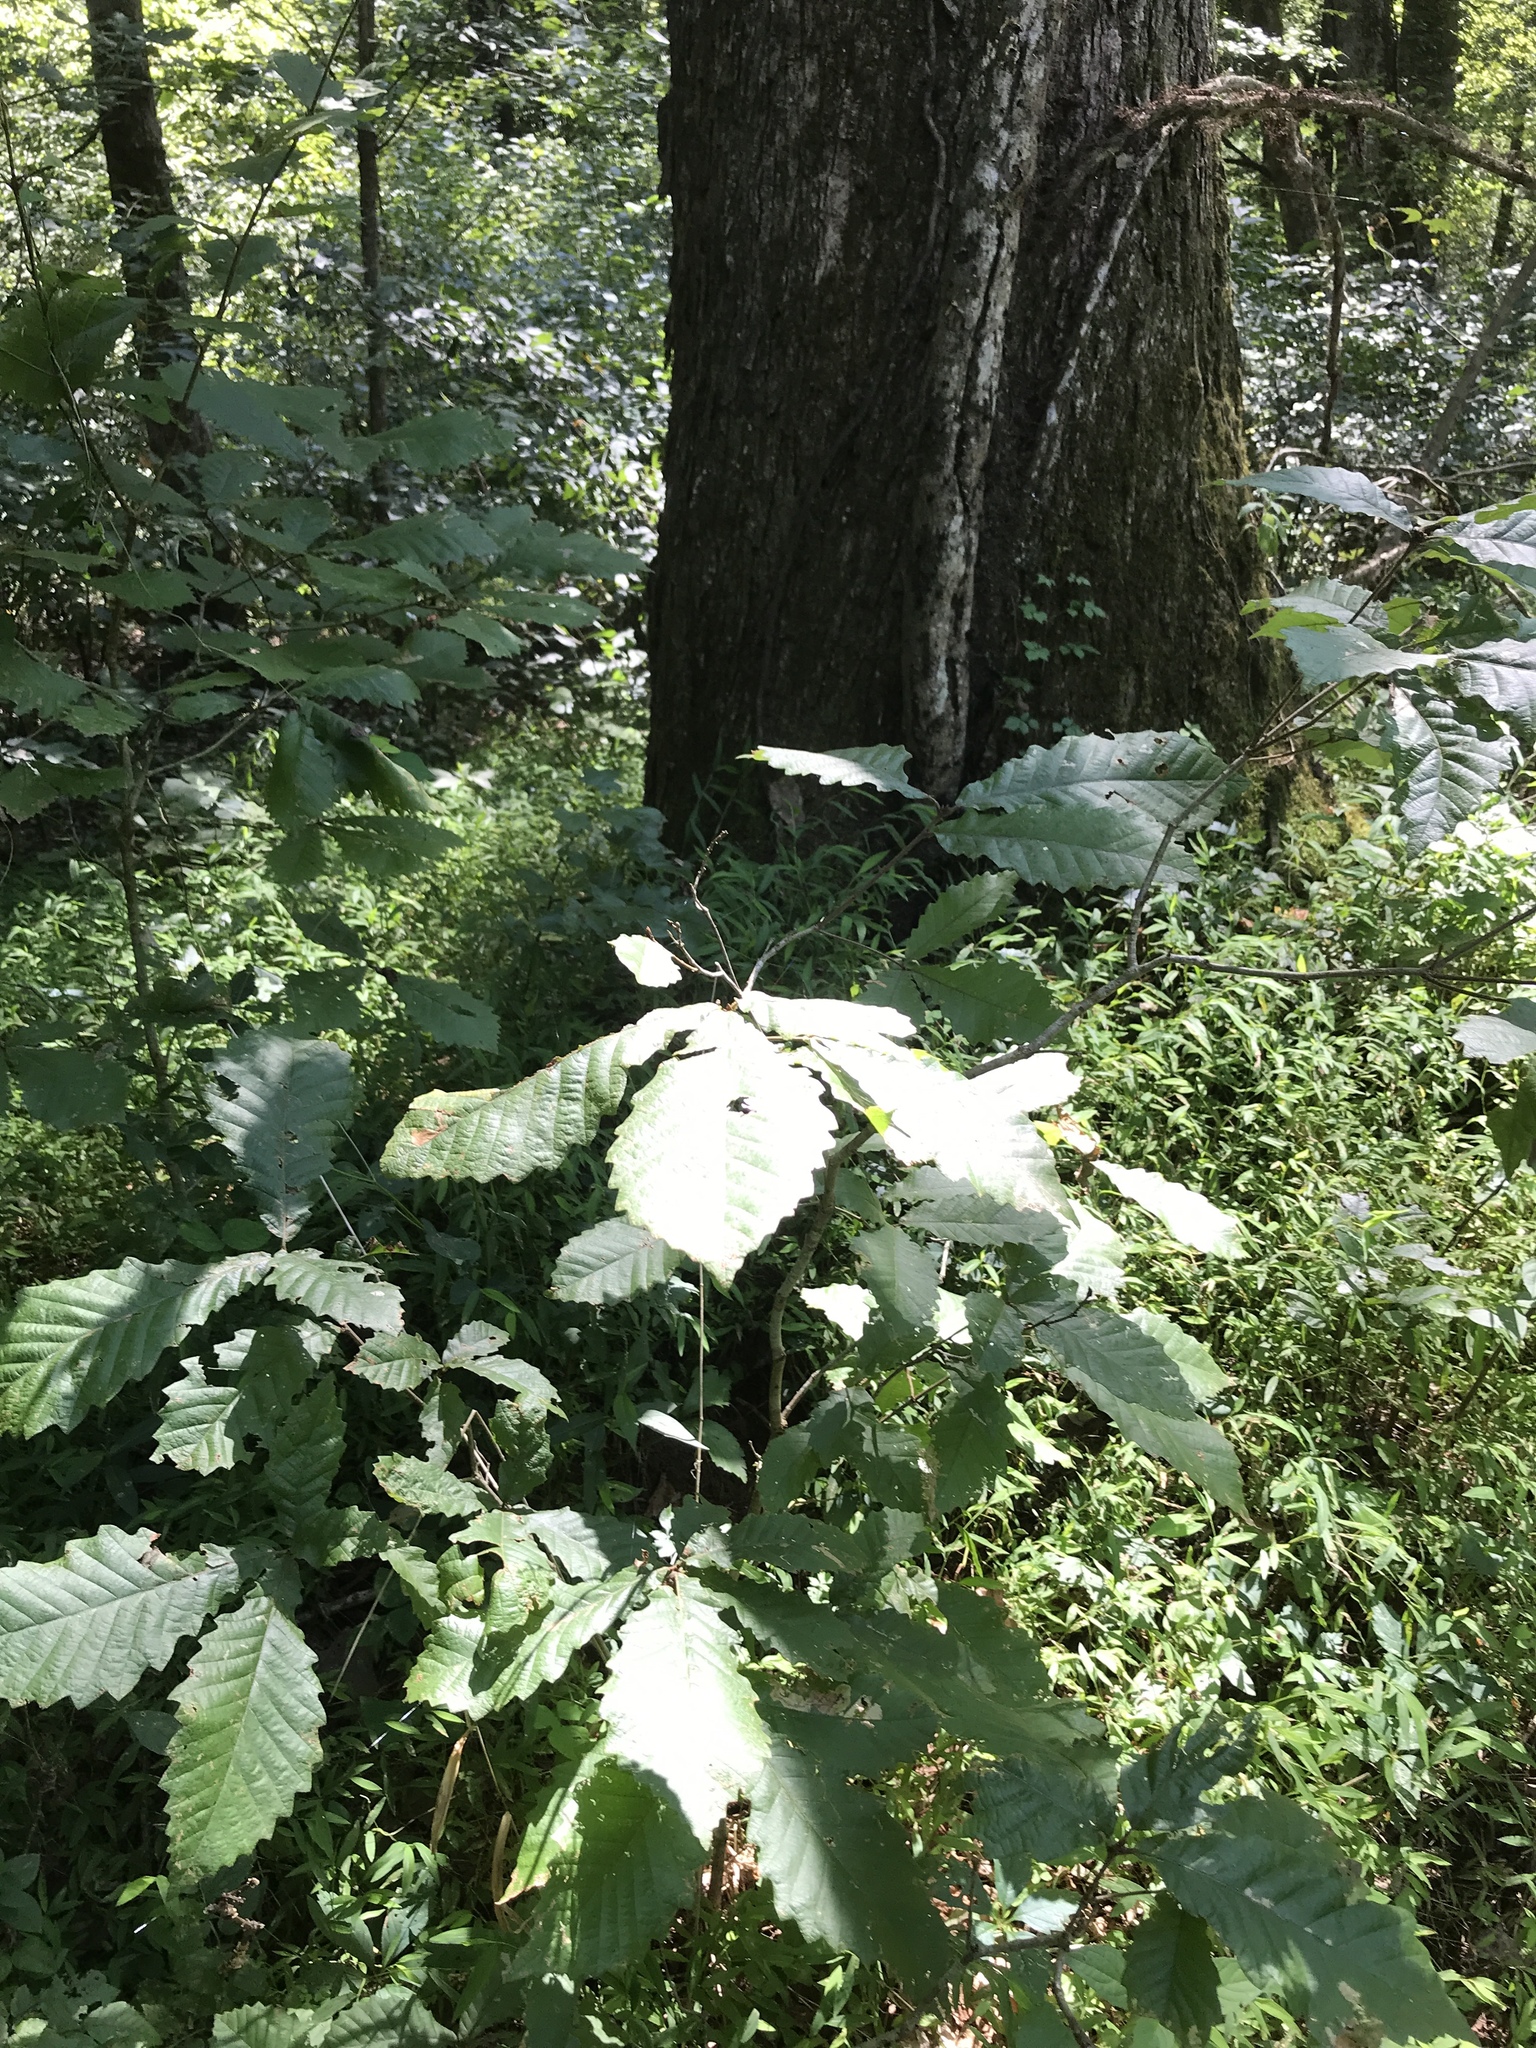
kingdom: Plantae
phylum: Tracheophyta
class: Magnoliopsida
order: Fagales
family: Fagaceae
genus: Quercus
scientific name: Quercus michauxii
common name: Swamp chestnut oak
